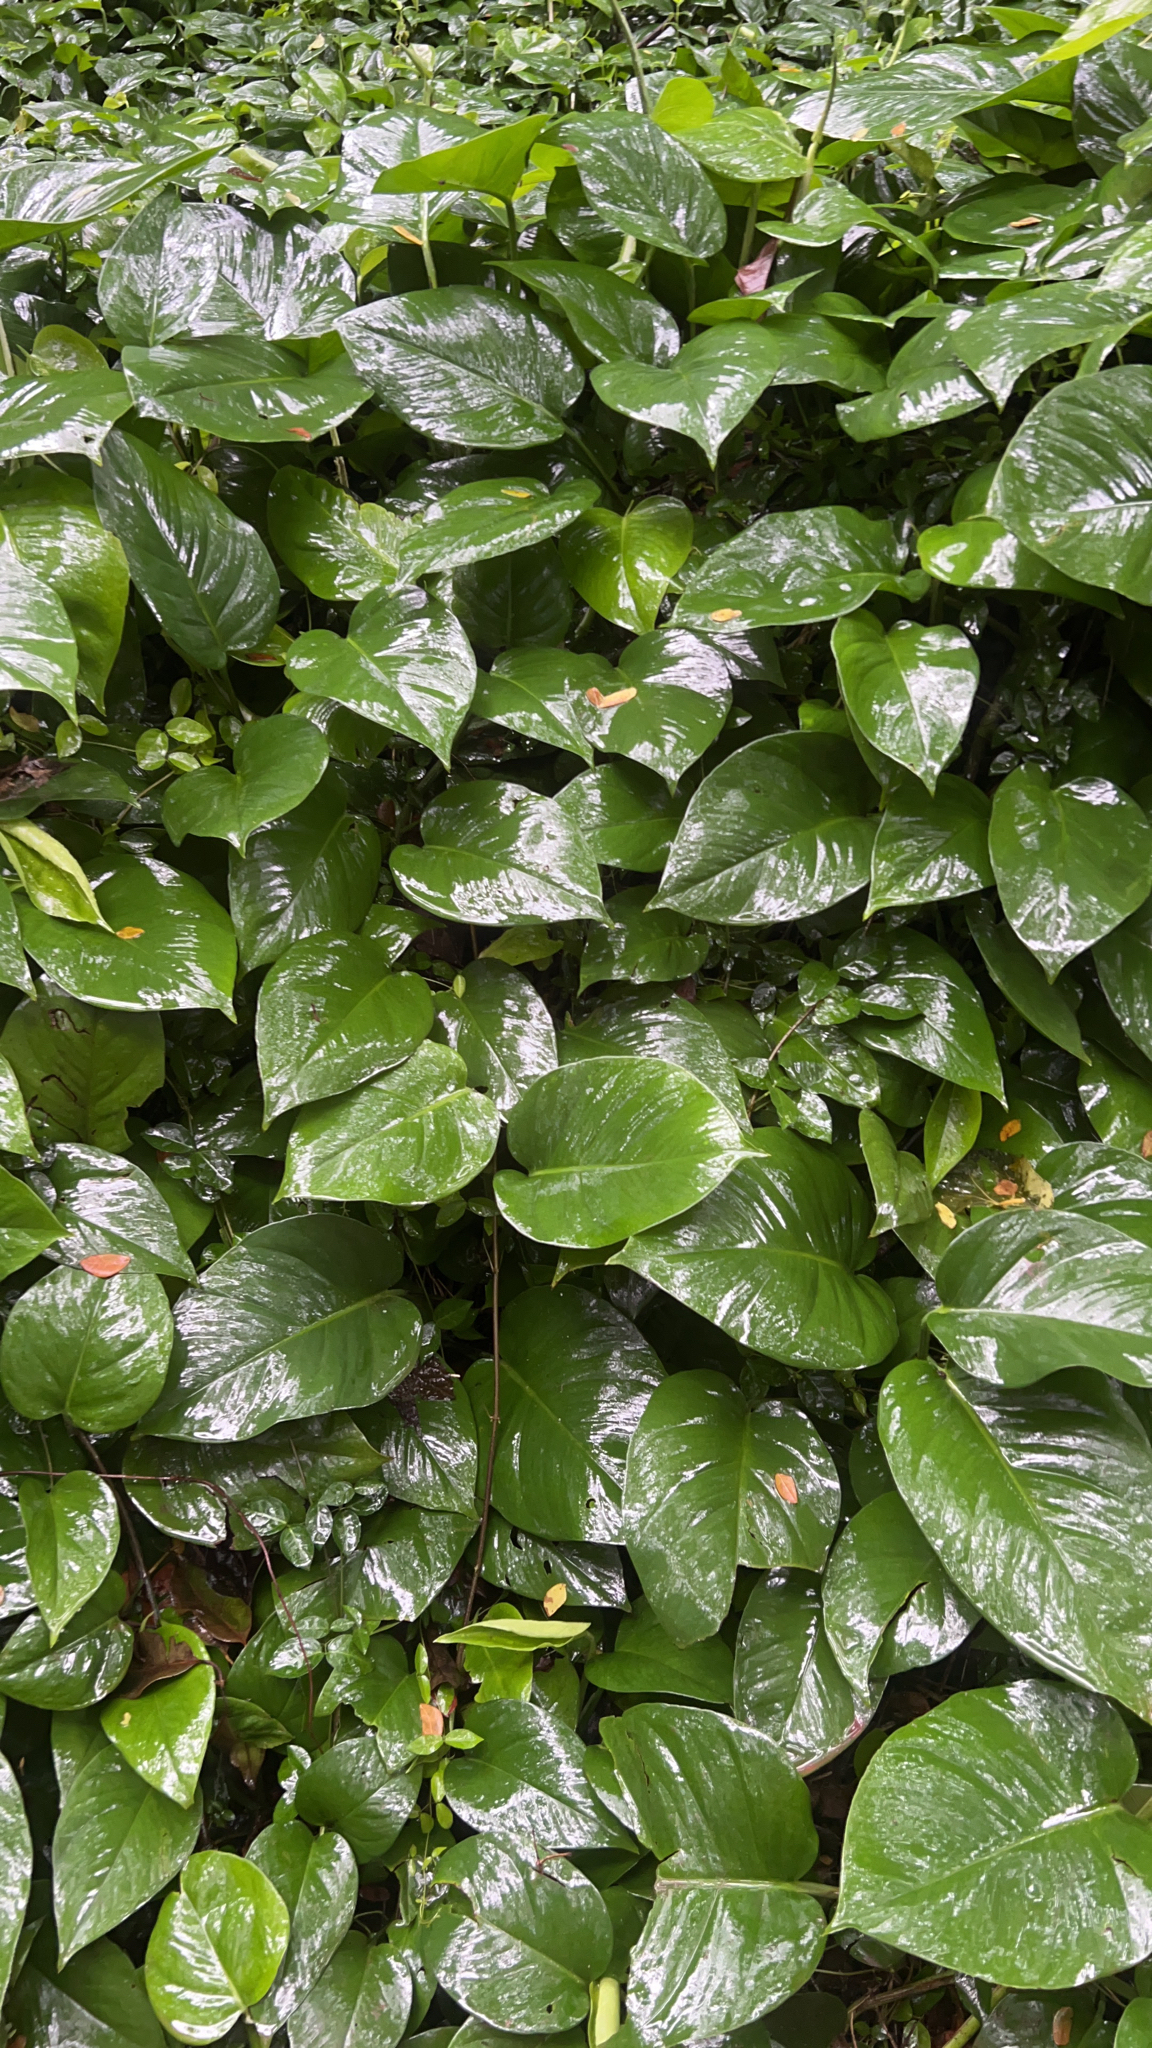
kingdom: Plantae
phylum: Tracheophyta
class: Liliopsida
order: Alismatales
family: Araceae
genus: Epipremnum
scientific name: Epipremnum aureum
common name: Golden hunter's-robe
